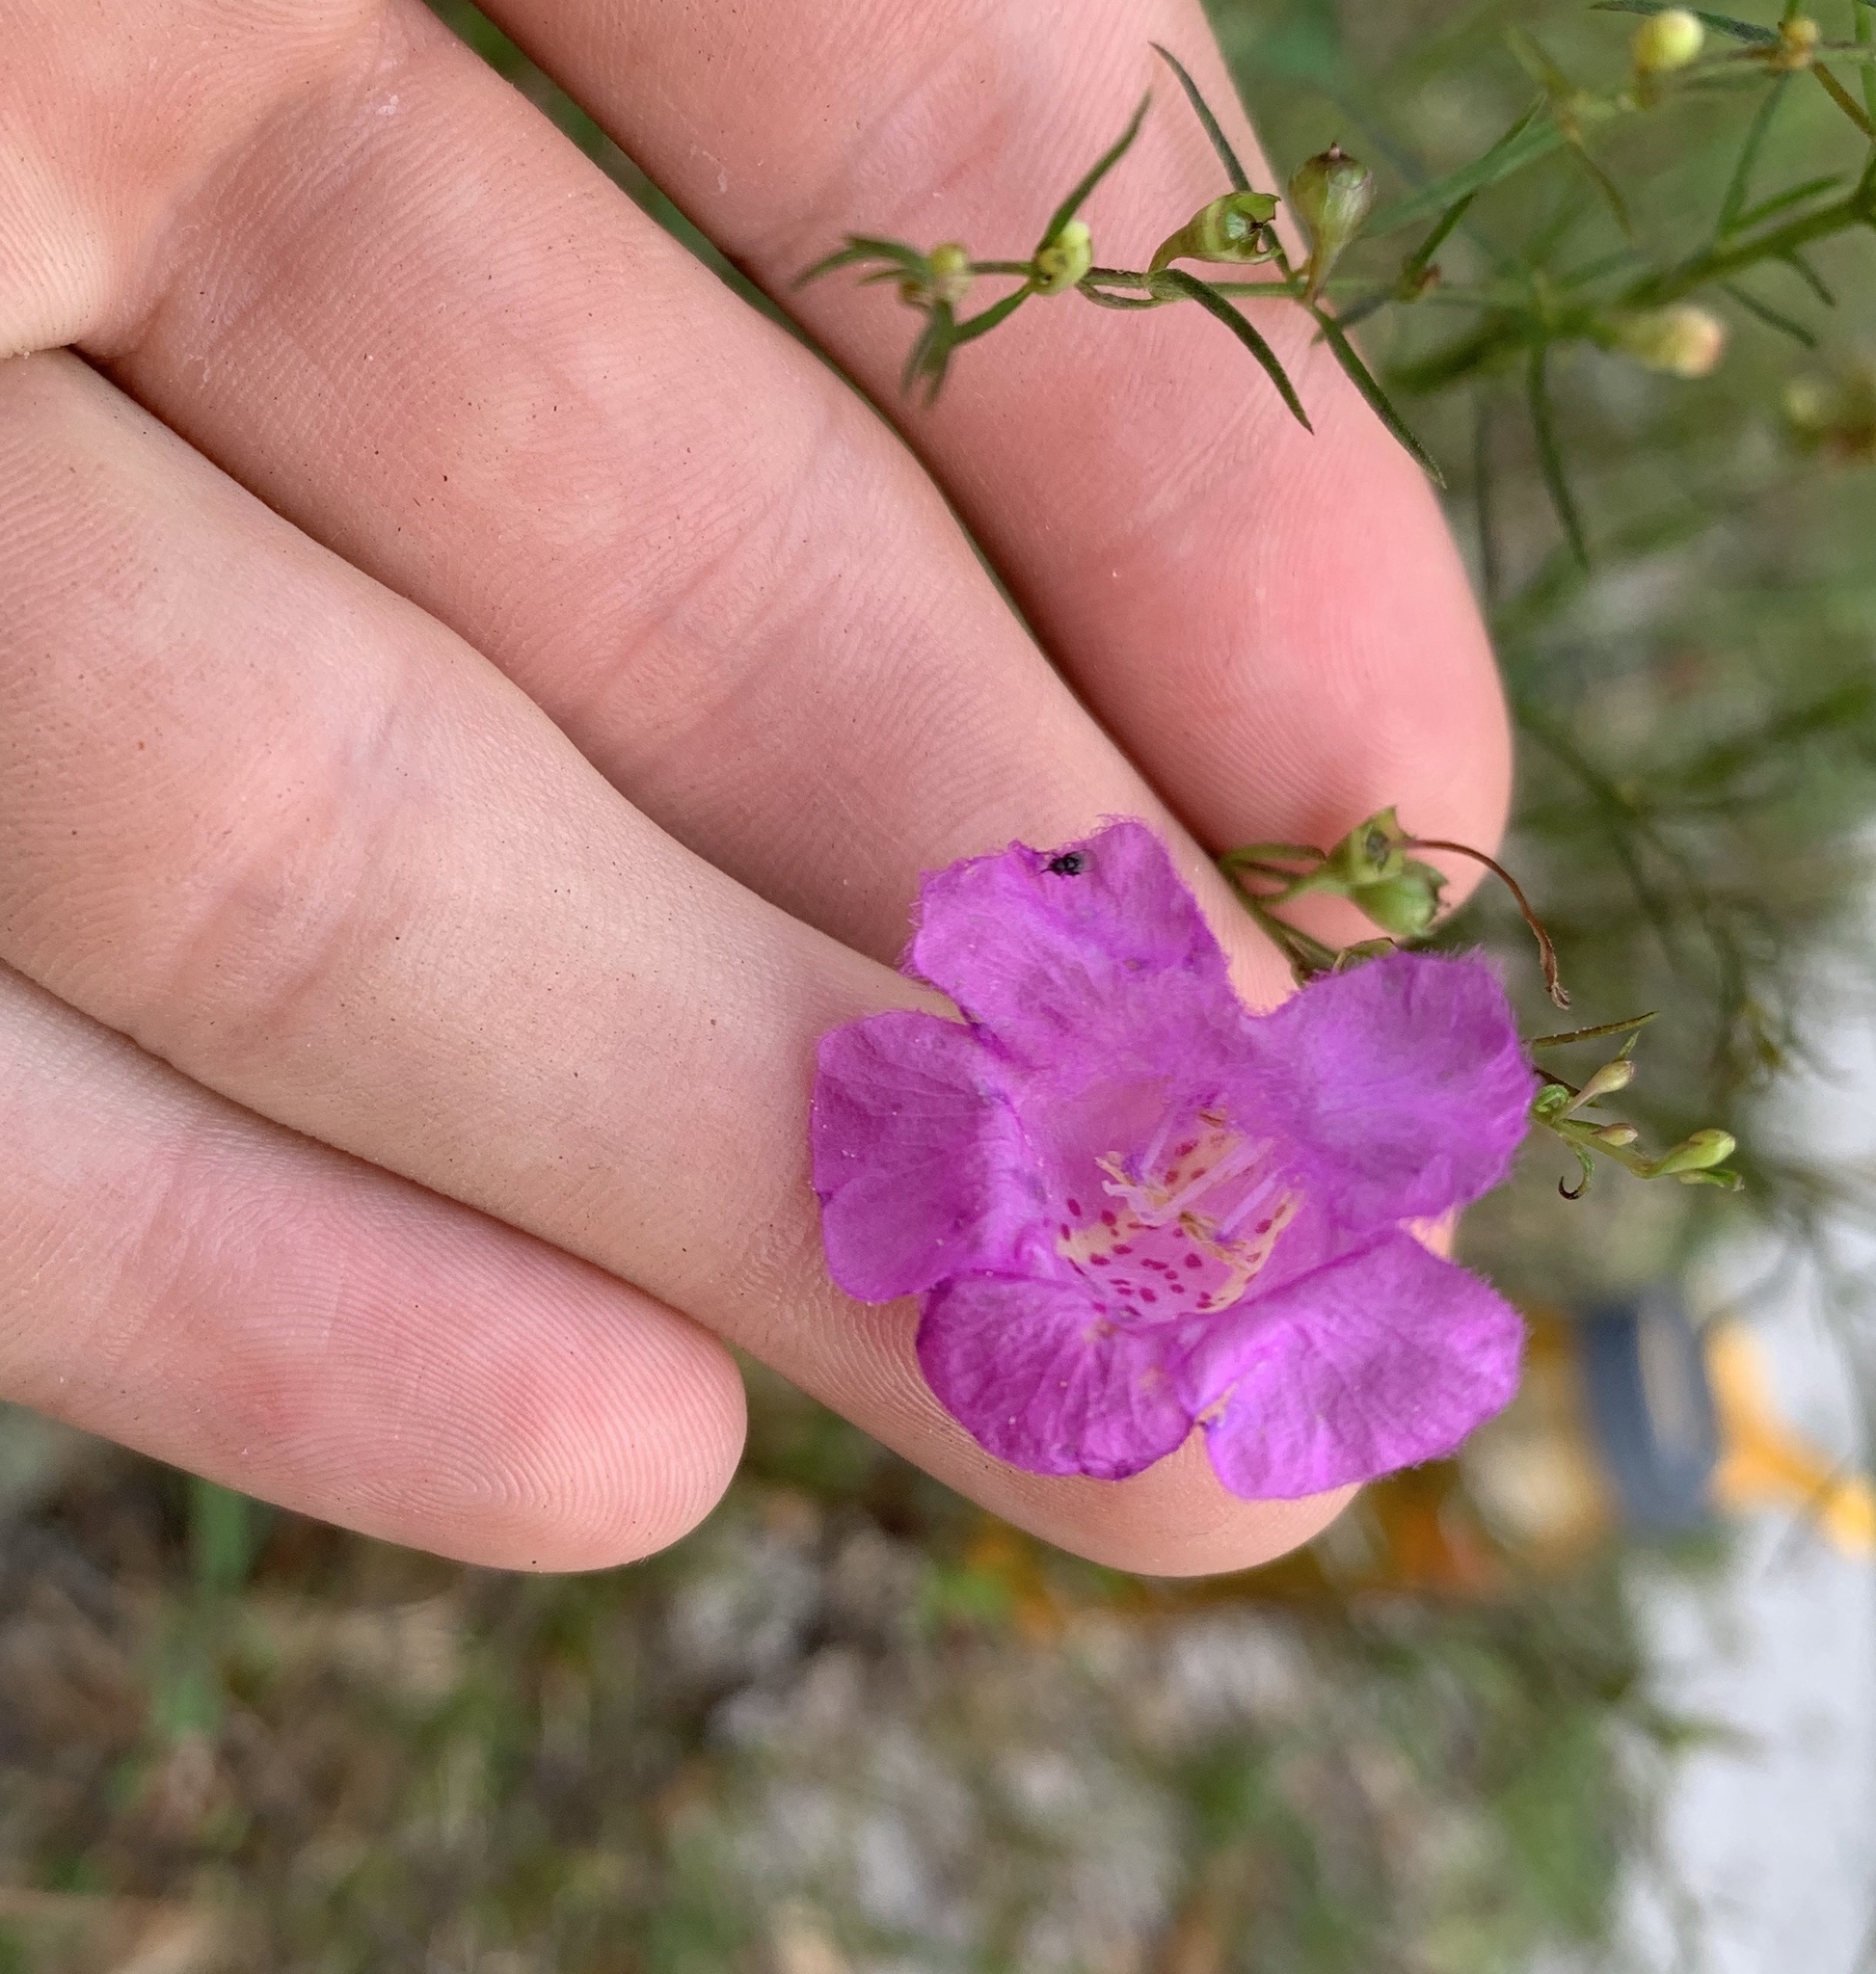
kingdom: Plantae
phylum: Tracheophyta
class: Magnoliopsida
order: Lamiales
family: Orobanchaceae
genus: Agalinis
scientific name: Agalinis fasciculata
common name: Beach false foxglove
